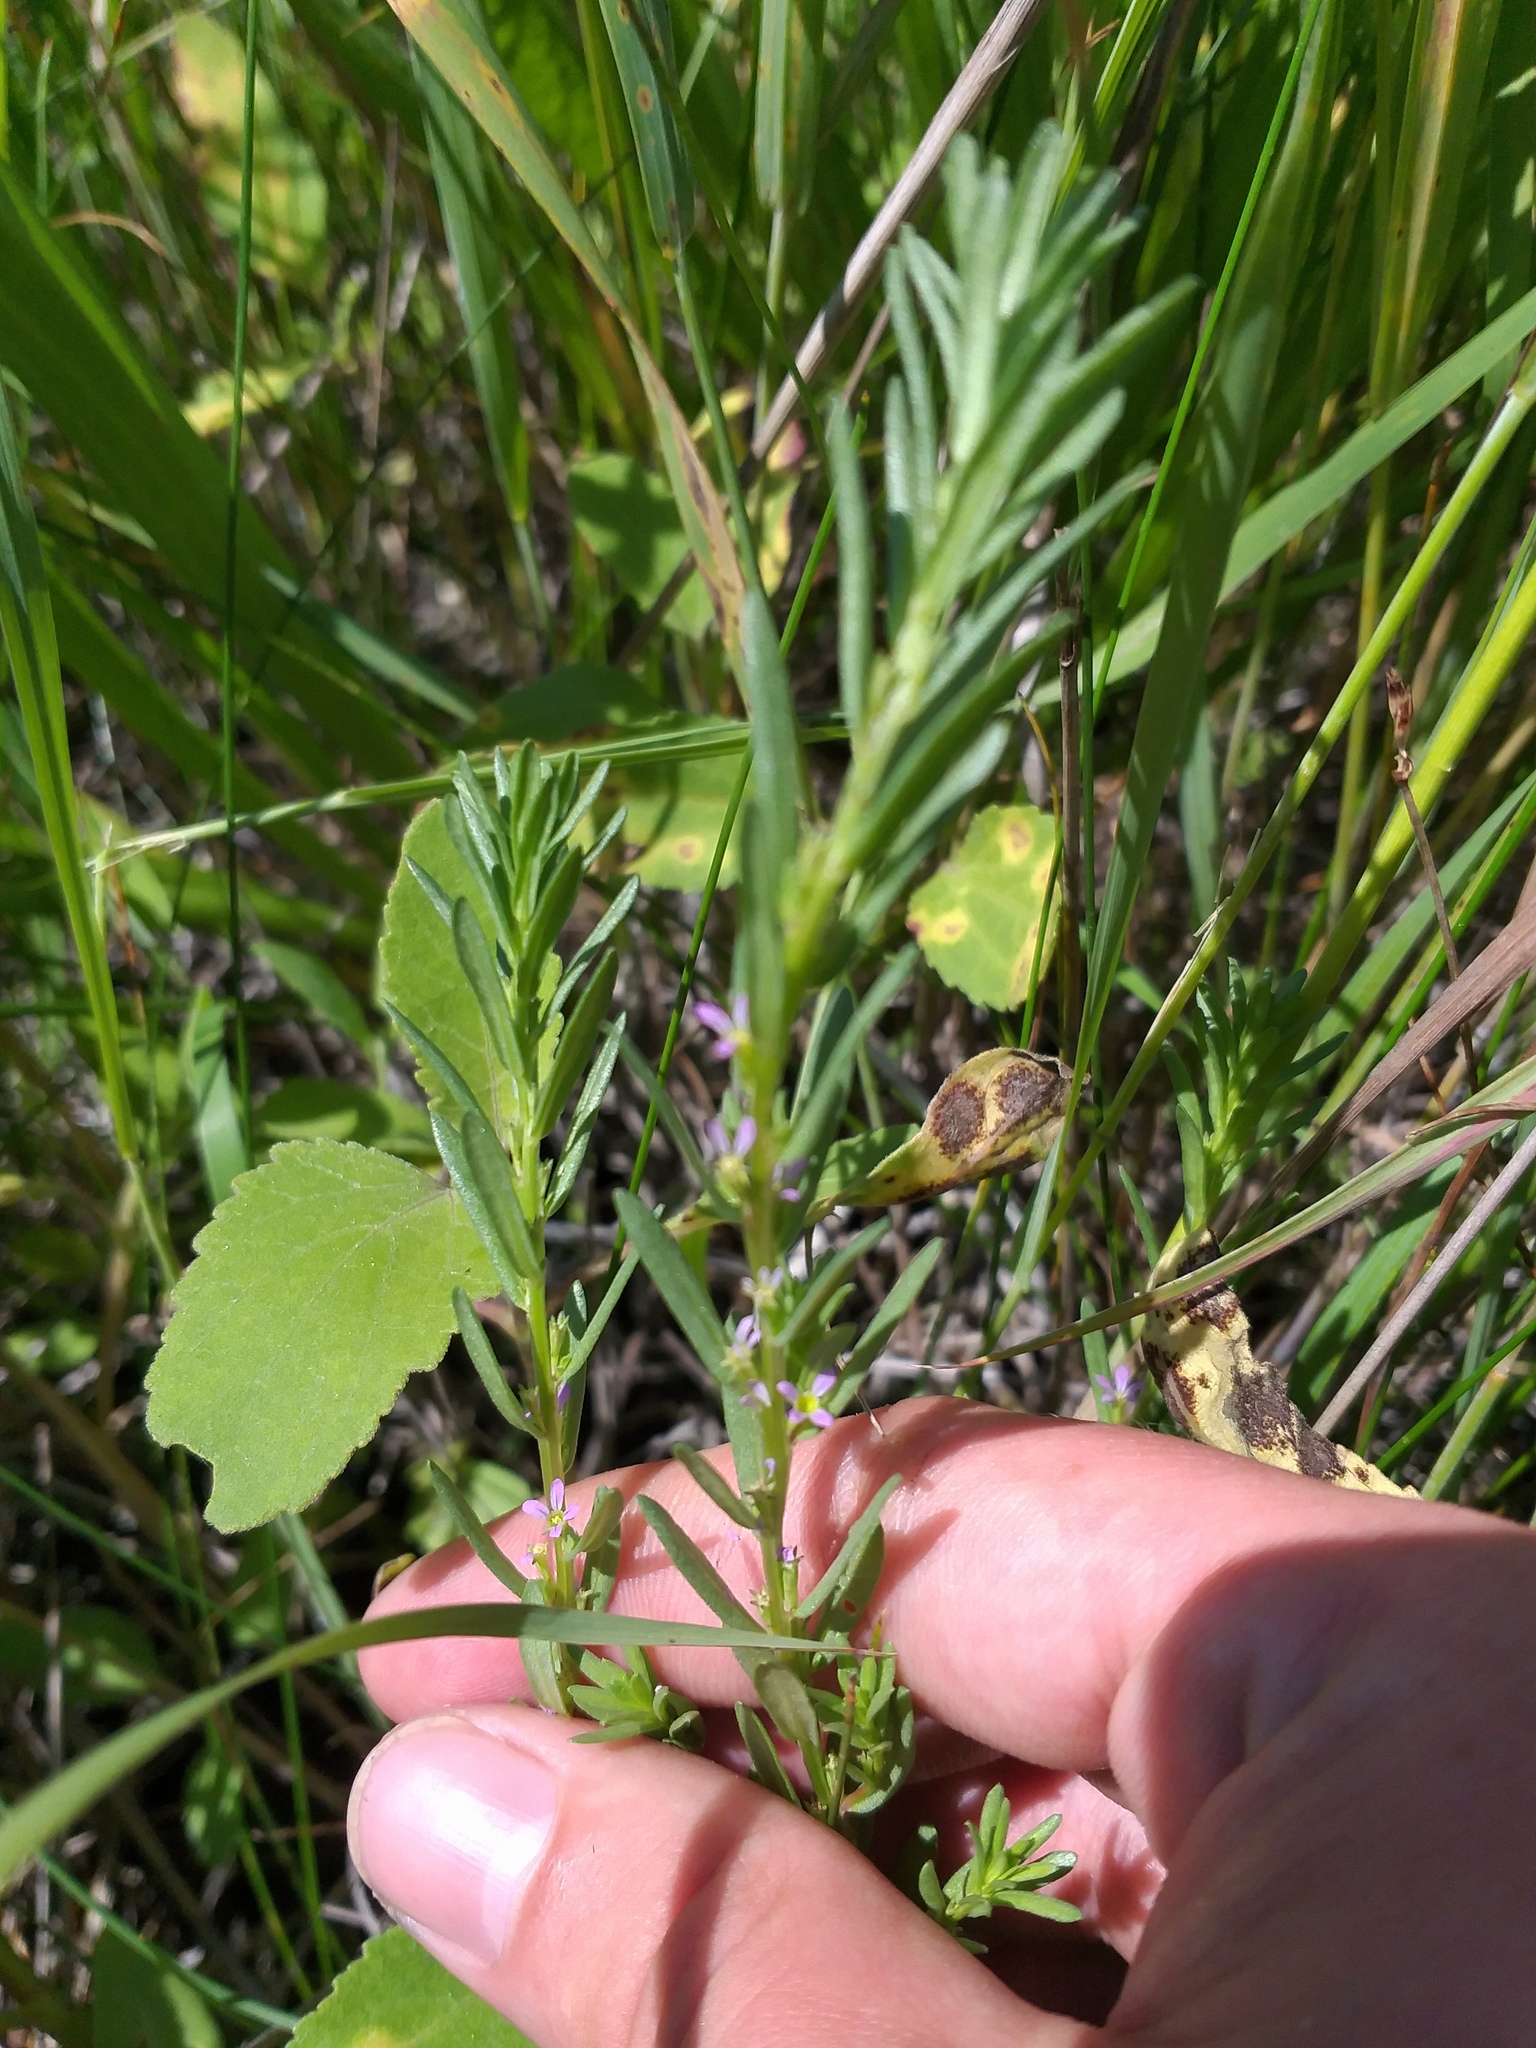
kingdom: Plantae
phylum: Tracheophyta
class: Magnoliopsida
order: Myrtales
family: Lythraceae
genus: Lythrum
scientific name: Lythrum thymifolia
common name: Thymeleaf loosestrife
